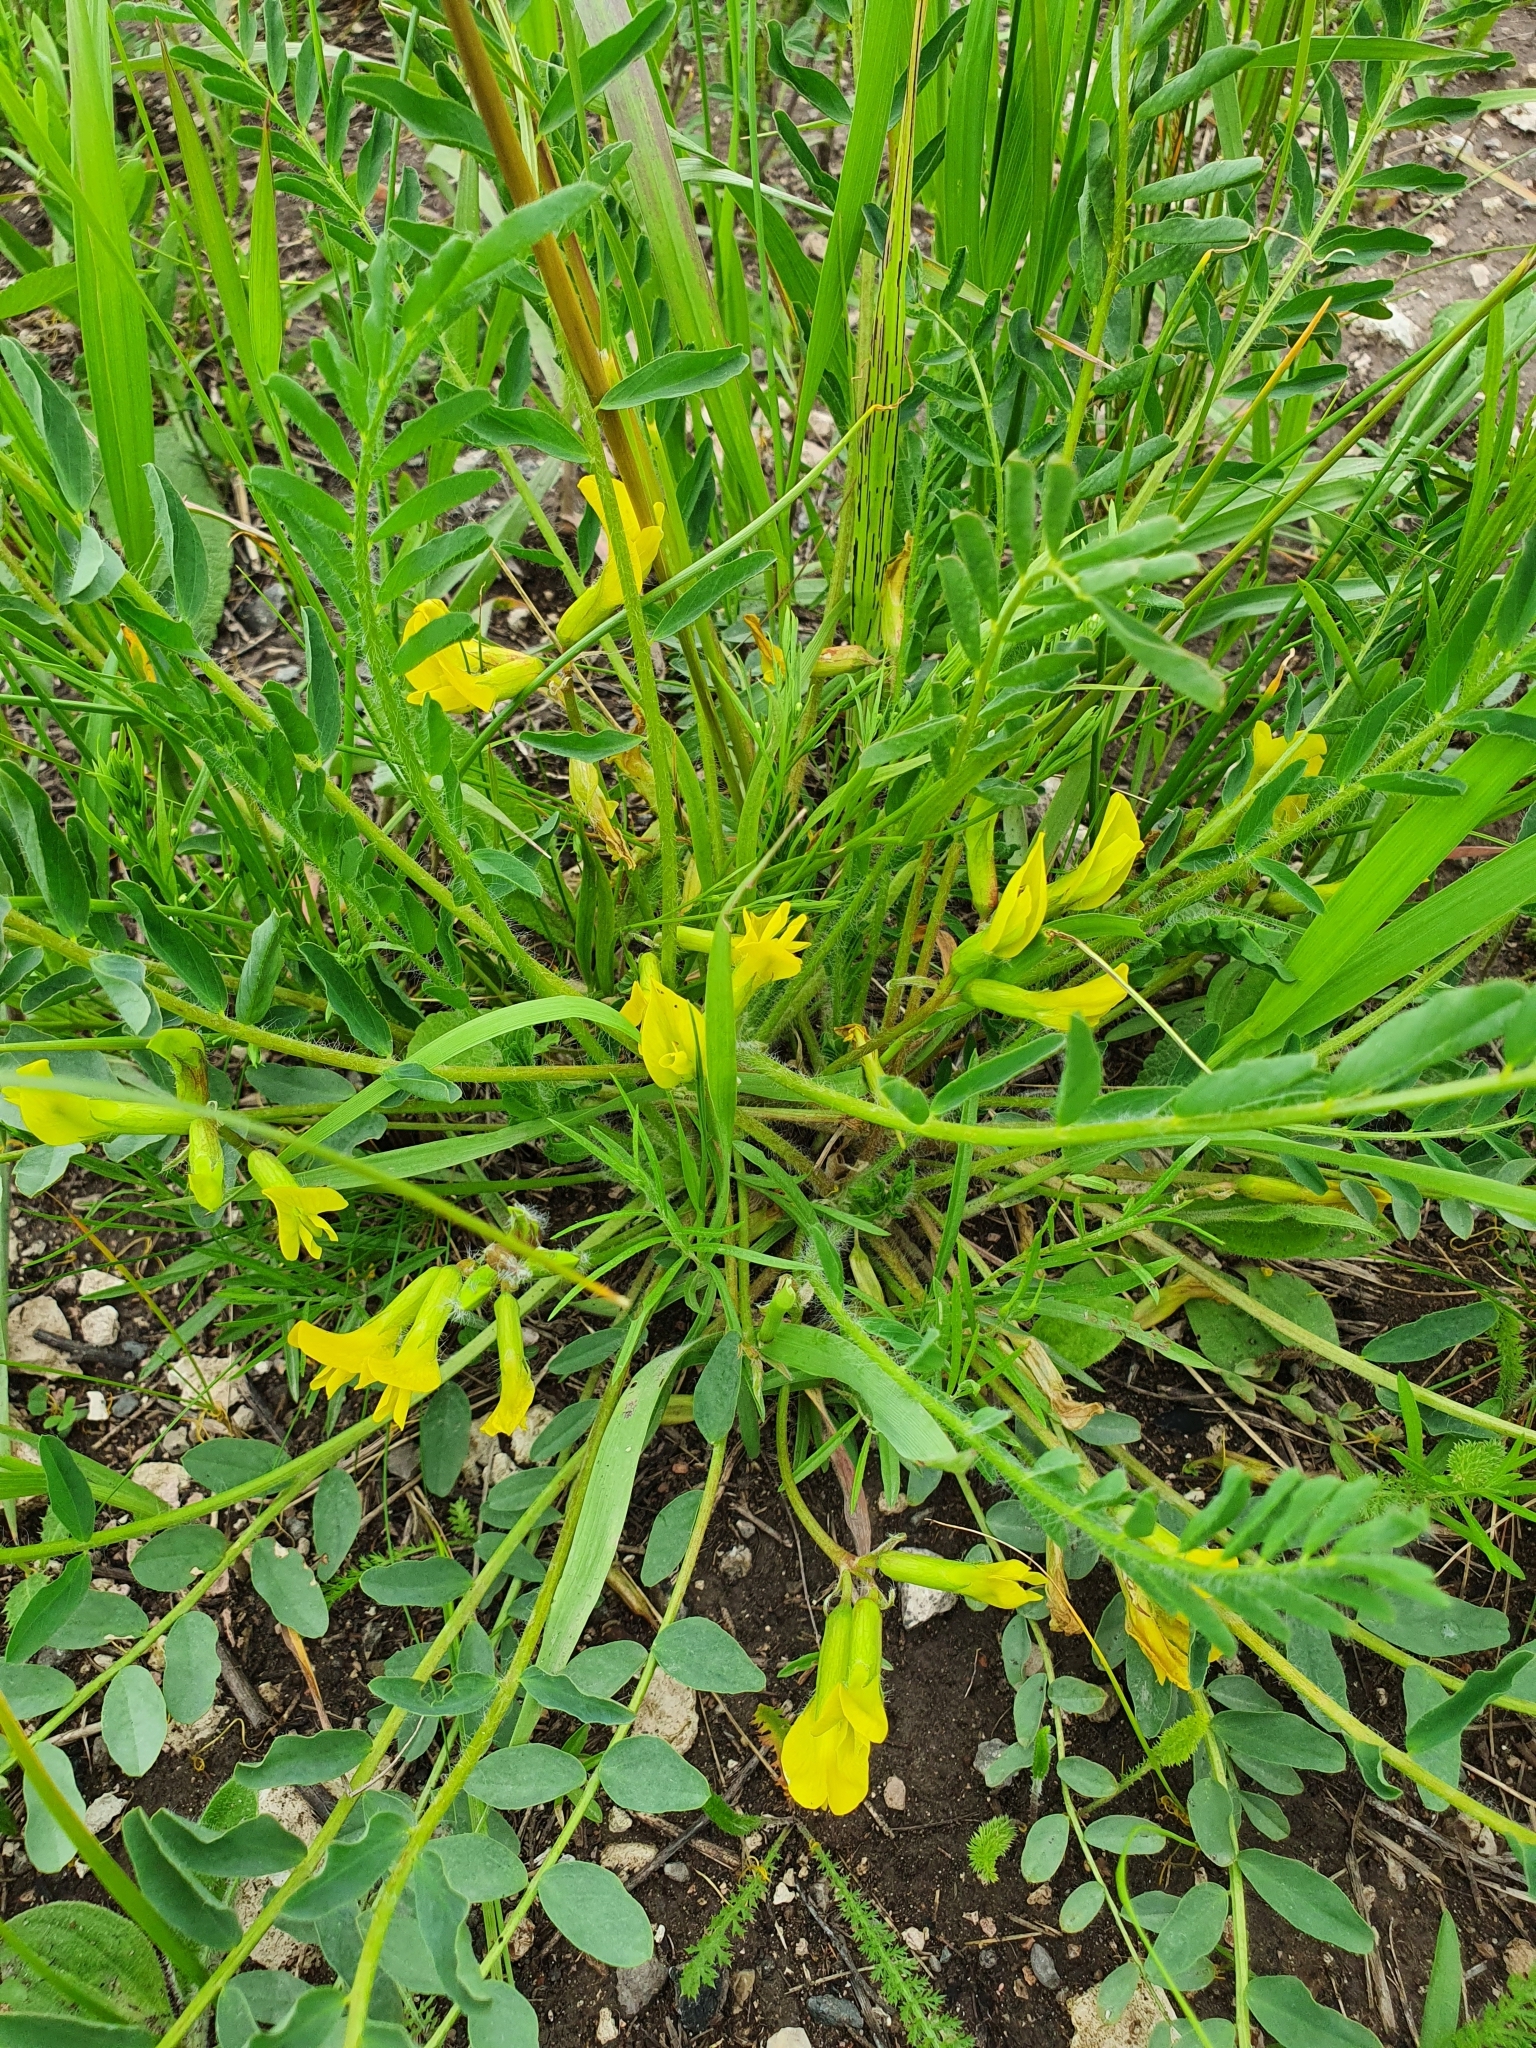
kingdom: Plantae
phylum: Tracheophyta
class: Magnoliopsida
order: Fabales
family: Fabaceae
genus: Astragalus
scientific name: Astragalus wolgensis
